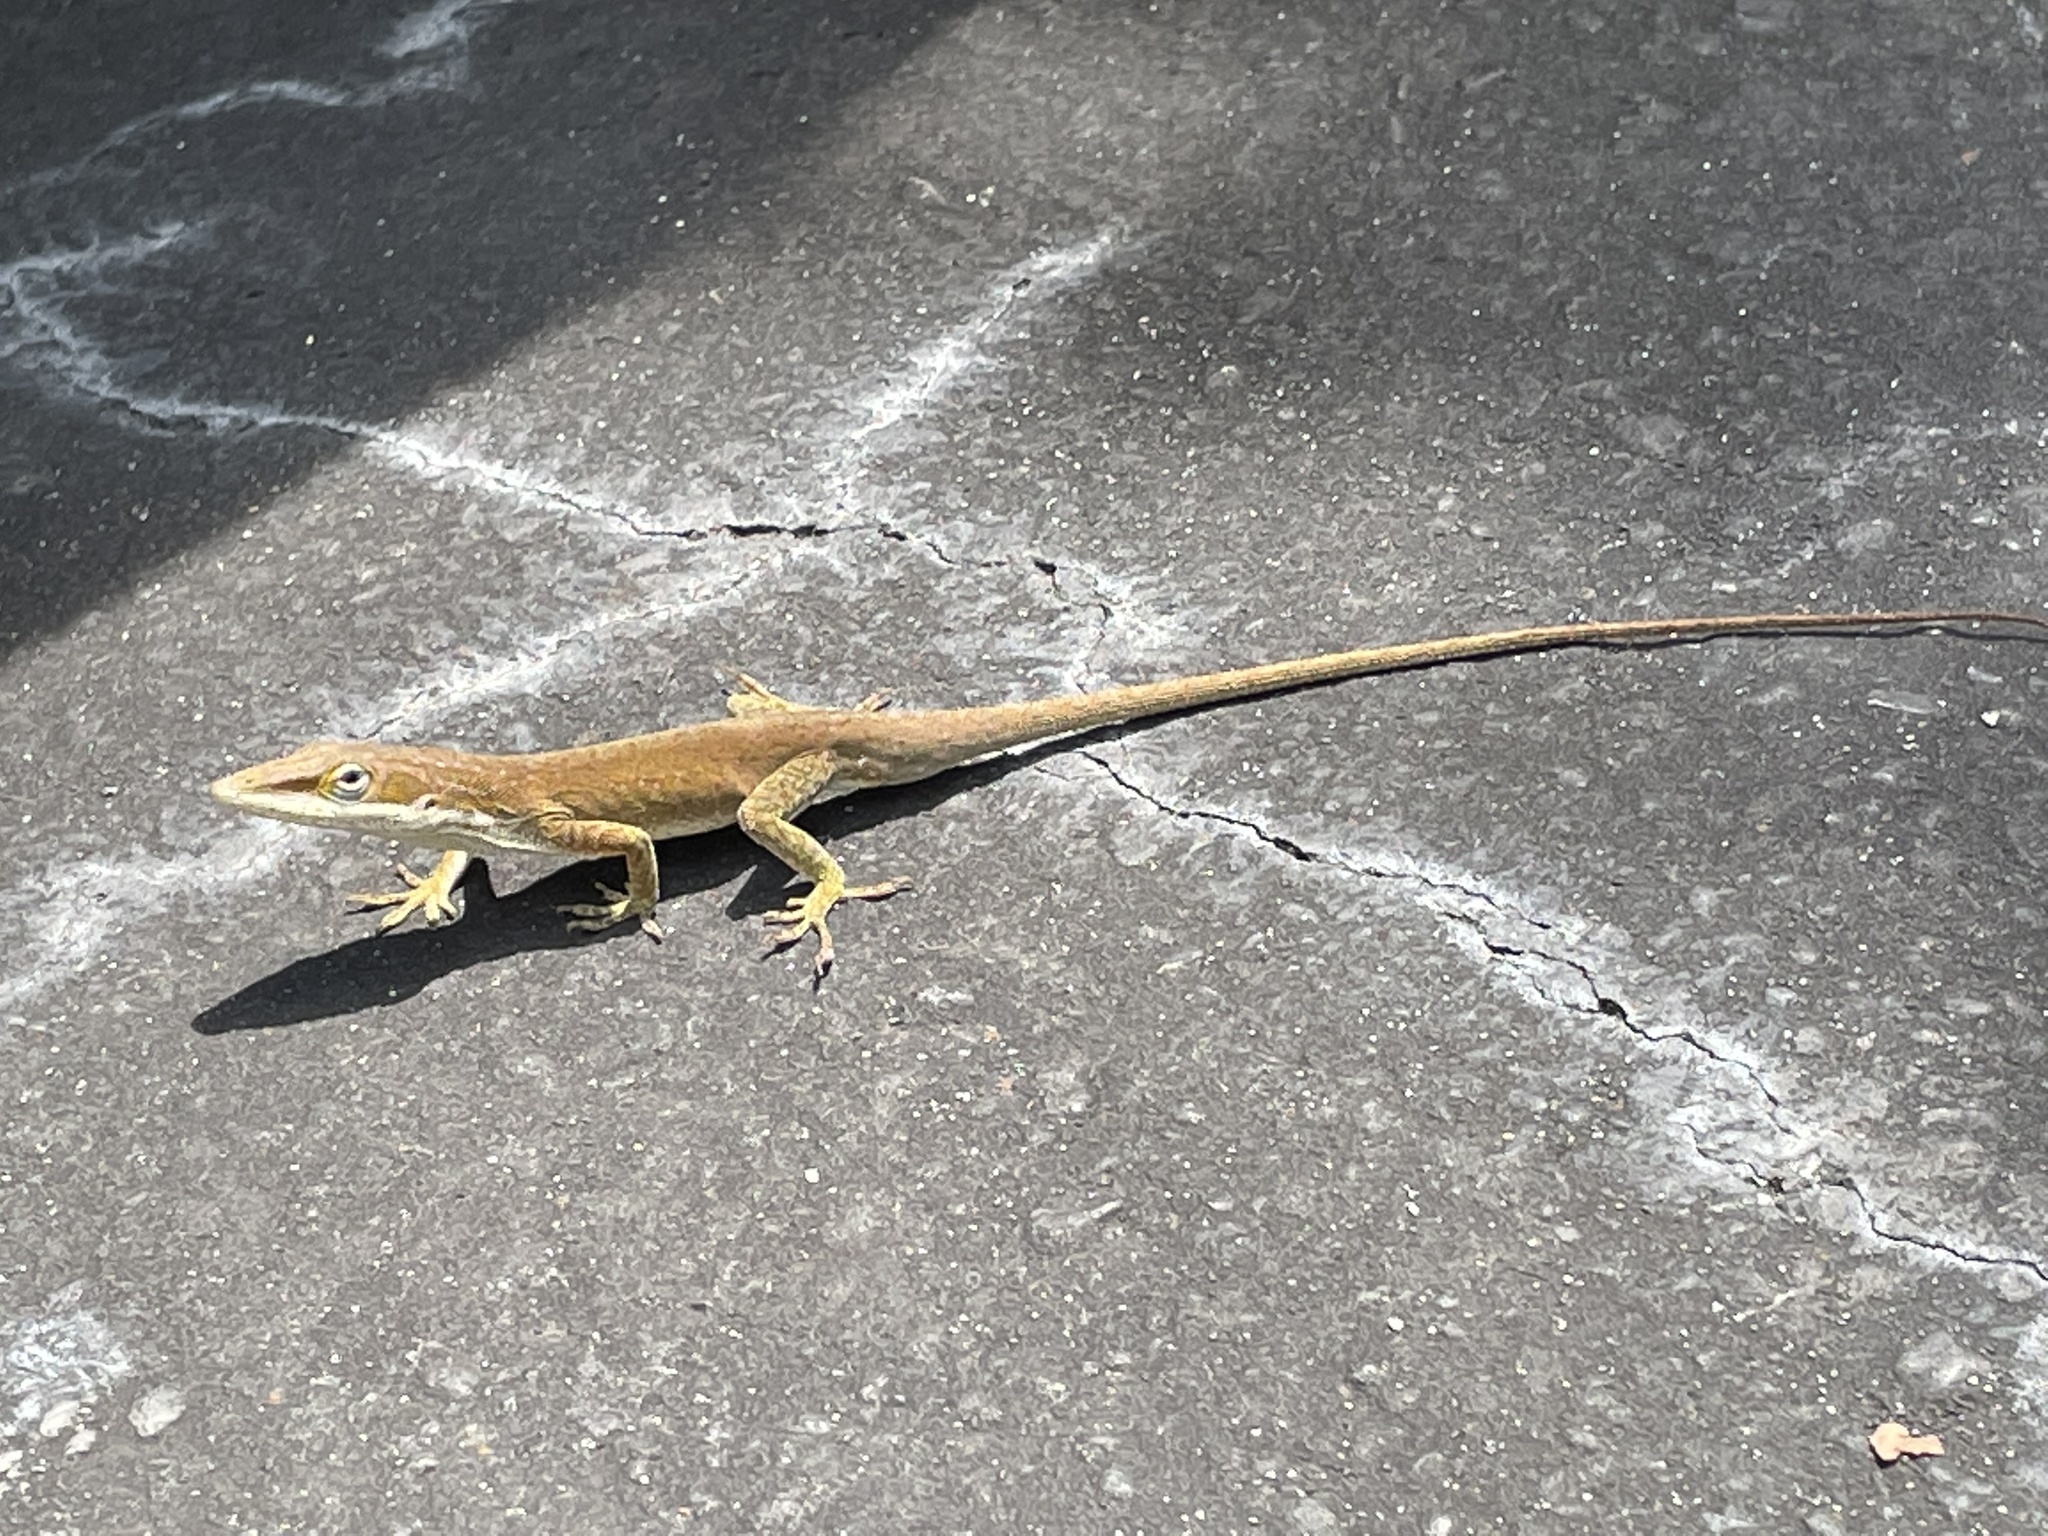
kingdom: Animalia
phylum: Chordata
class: Squamata
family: Dactyloidae
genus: Anolis
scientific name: Anolis carolinensis
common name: Green anole
